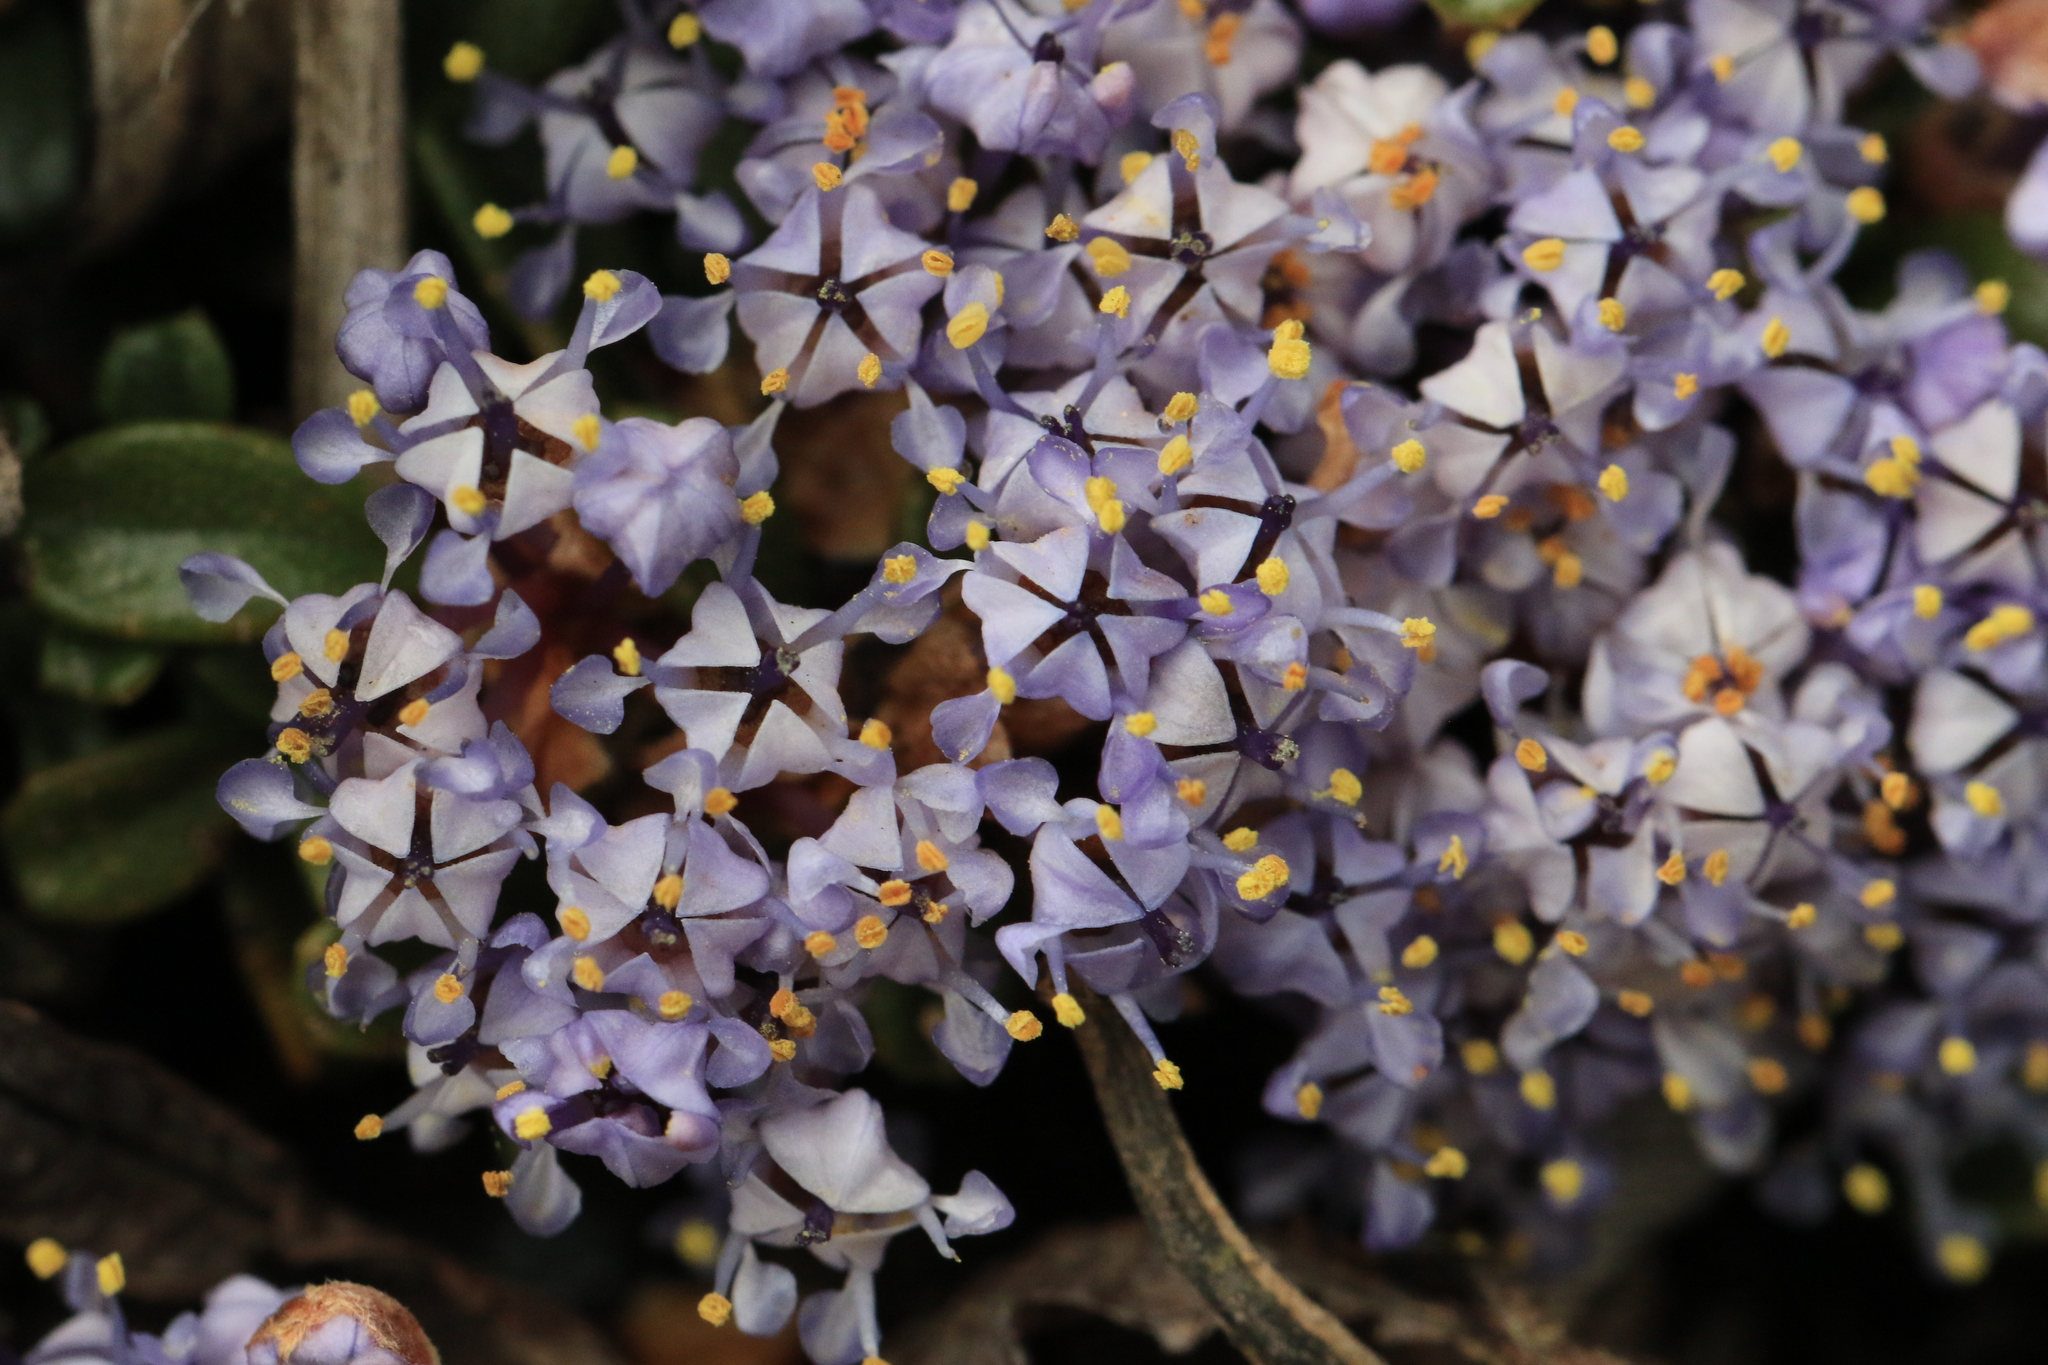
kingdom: Plantae
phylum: Tracheophyta
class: Magnoliopsida
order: Rosales
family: Rhamnaceae
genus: Ceanothus
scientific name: Ceanothus pumilus
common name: Siskiyou-mat
